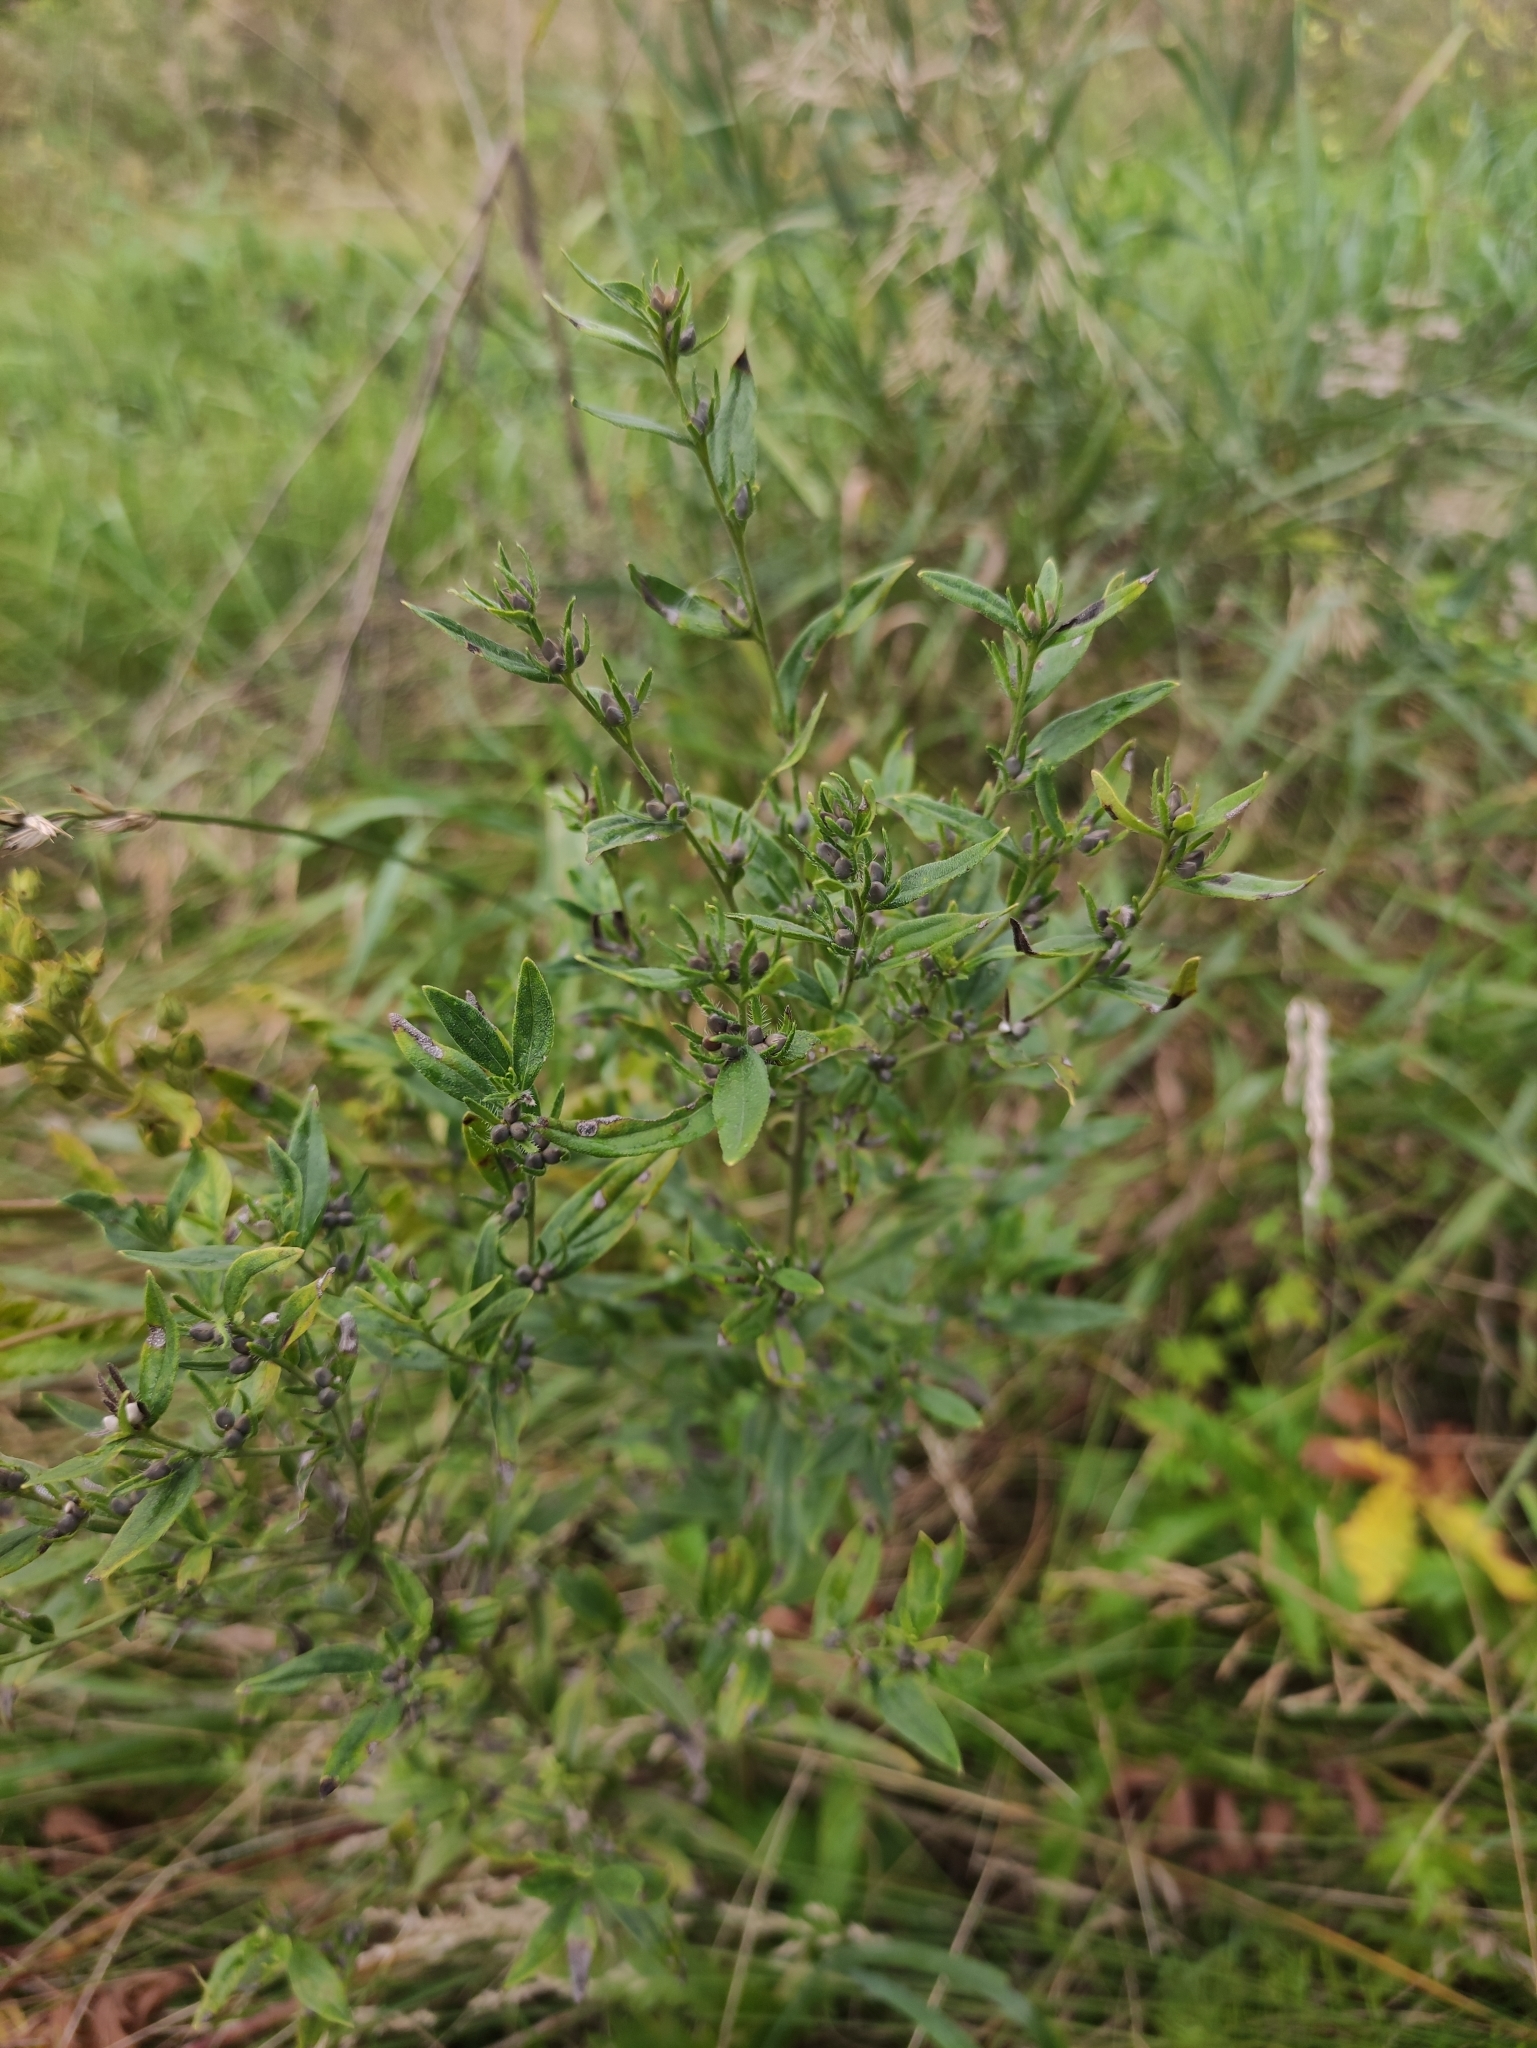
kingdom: Plantae
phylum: Tracheophyta
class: Magnoliopsida
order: Boraginales
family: Boraginaceae
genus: Lithospermum
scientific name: Lithospermum officinale
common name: Common gromwell
